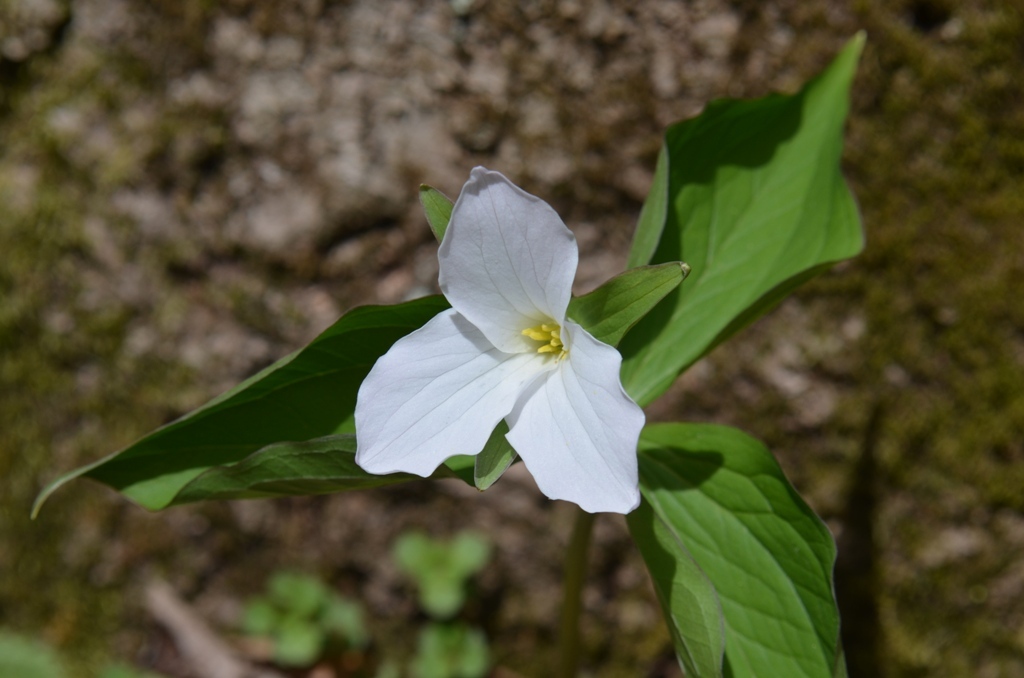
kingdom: Plantae
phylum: Tracheophyta
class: Liliopsida
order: Liliales
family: Melanthiaceae
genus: Trillium
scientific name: Trillium grandiflorum
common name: Great white trillium
